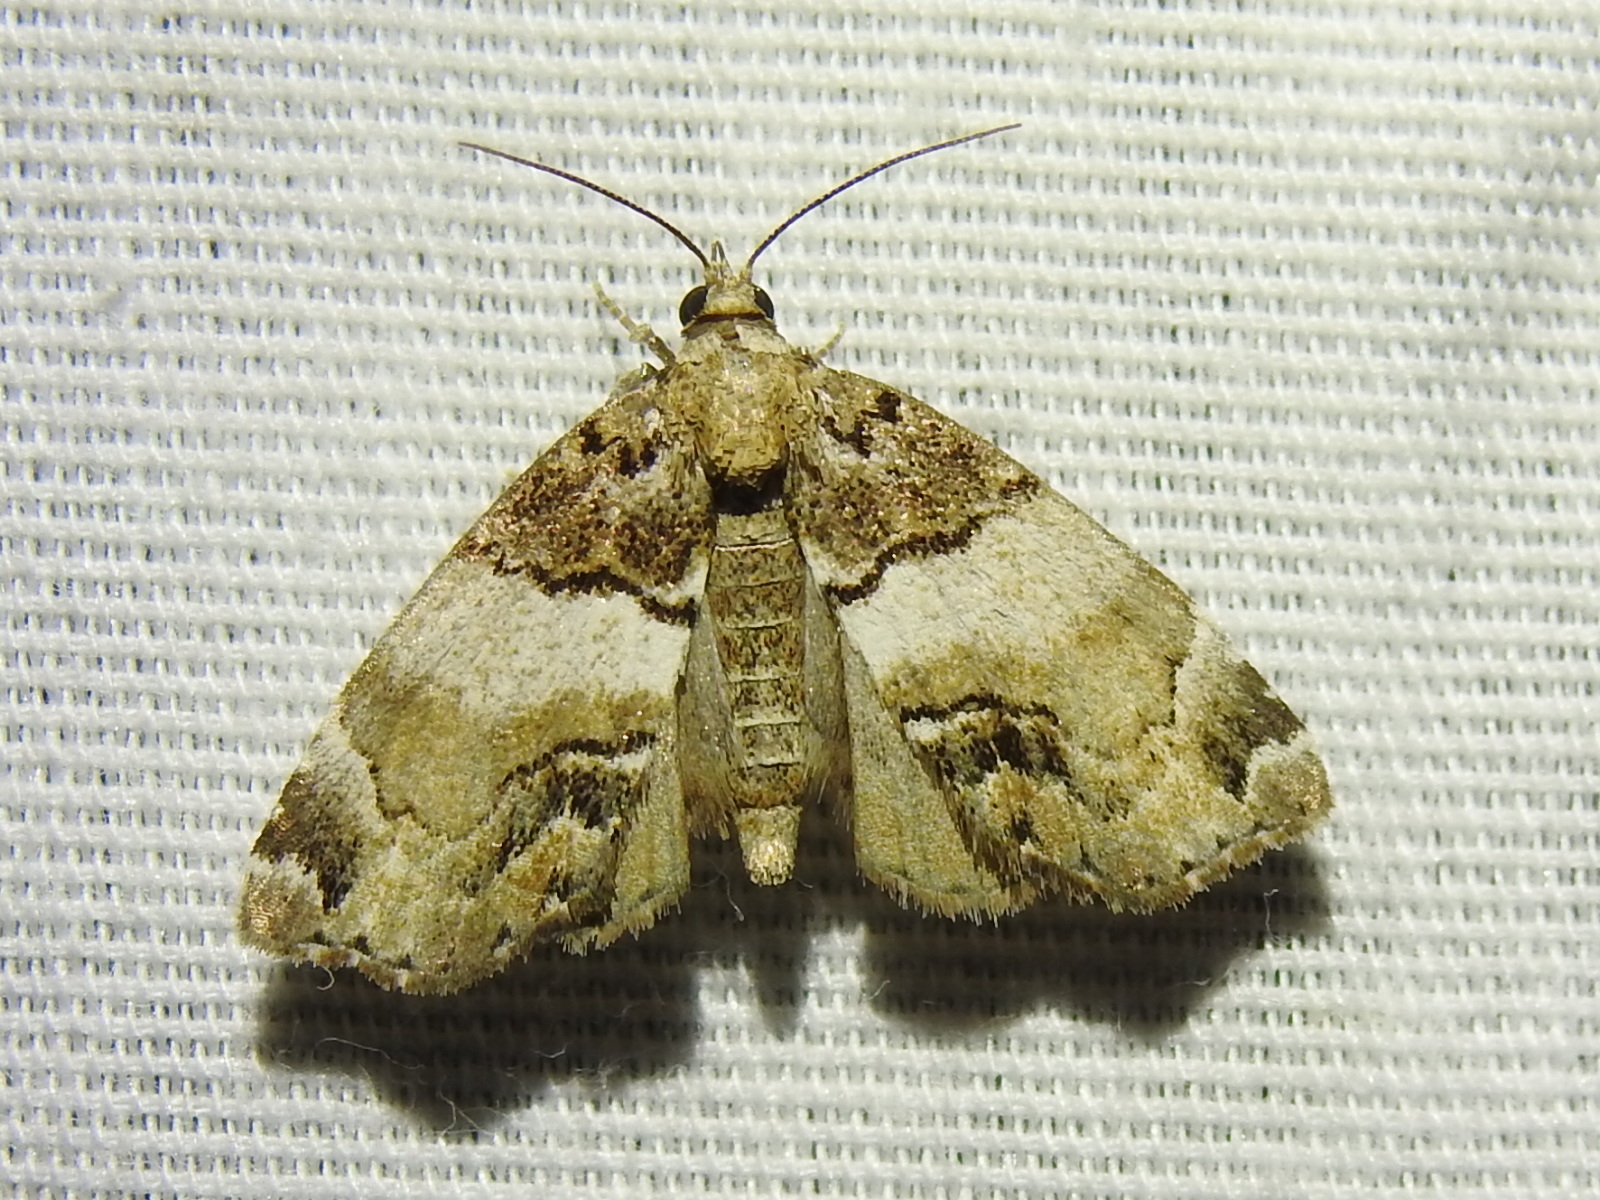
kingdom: Animalia
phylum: Arthropoda
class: Insecta
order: Lepidoptera
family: Erebidae
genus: Cutina
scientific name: Cutina distincta
